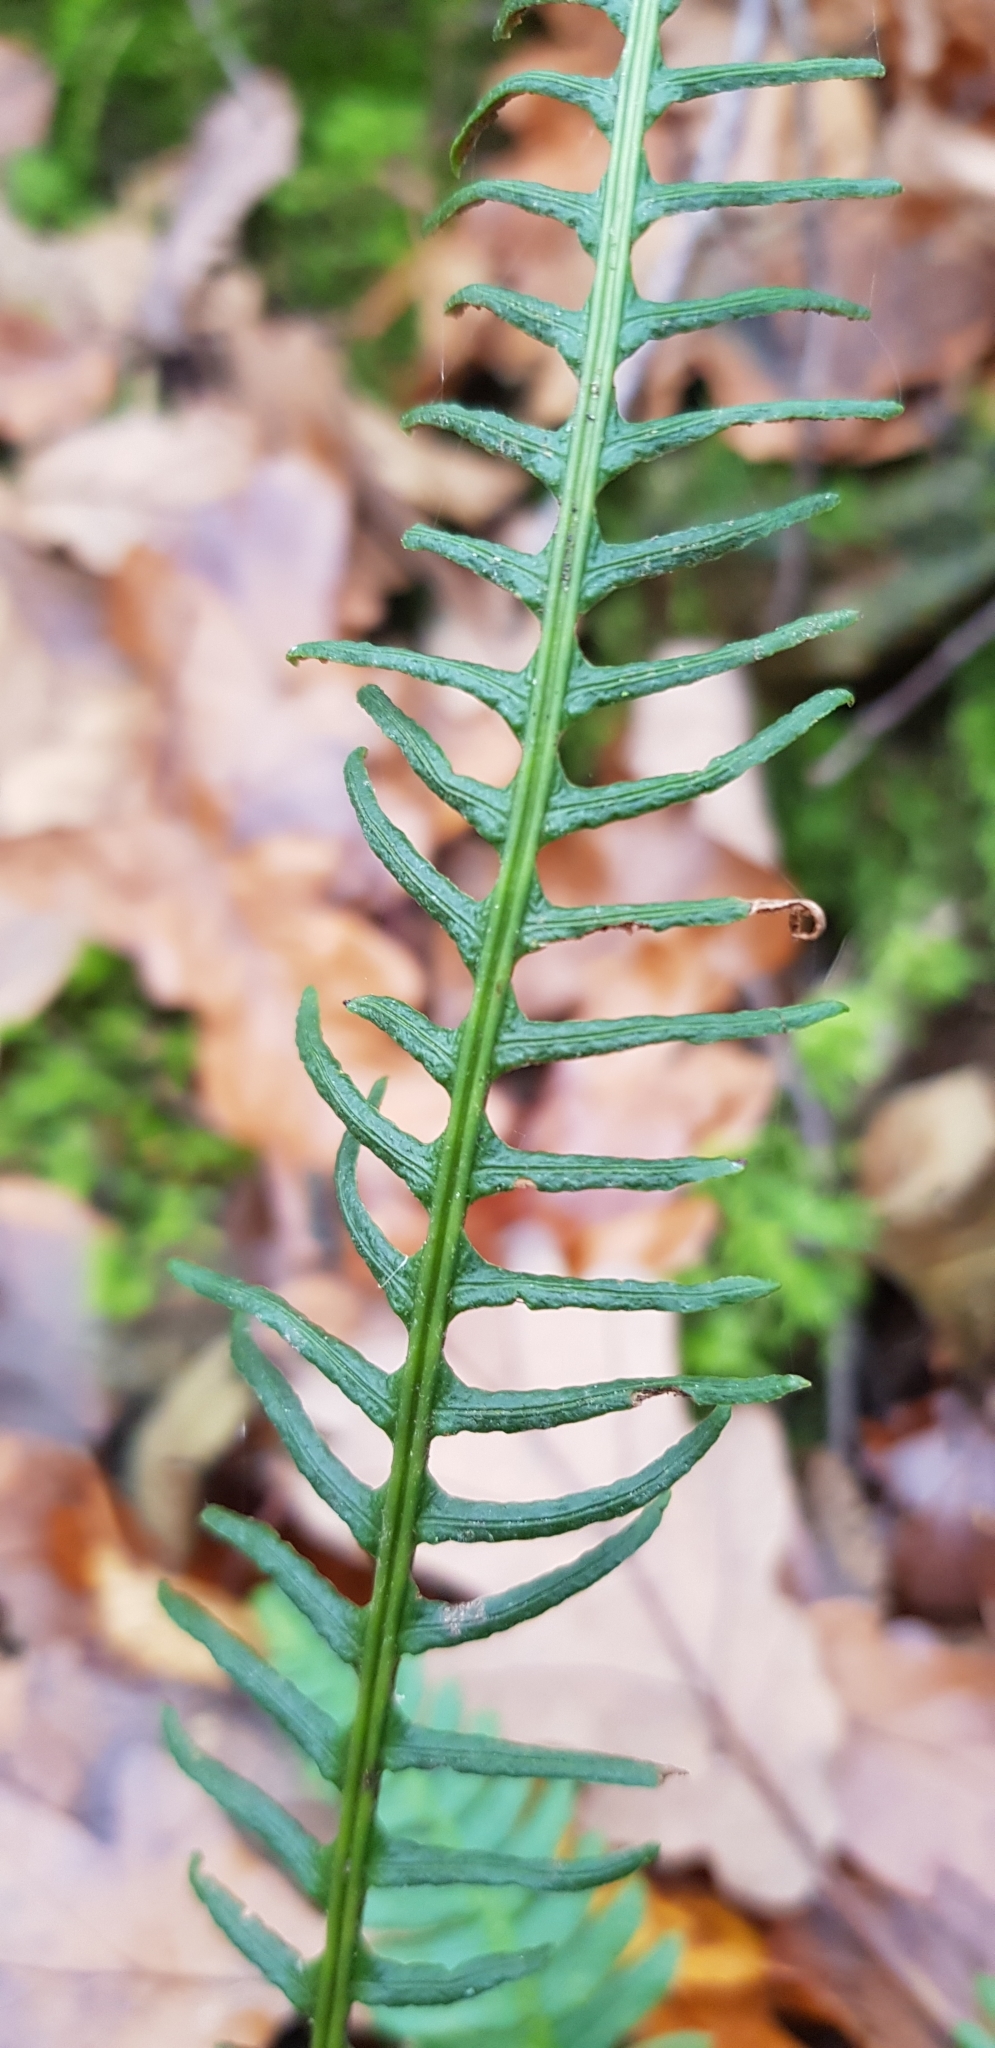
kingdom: Plantae
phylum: Tracheophyta
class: Polypodiopsida
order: Polypodiales
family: Blechnaceae
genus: Struthiopteris
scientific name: Struthiopteris spicant
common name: Deer fern
